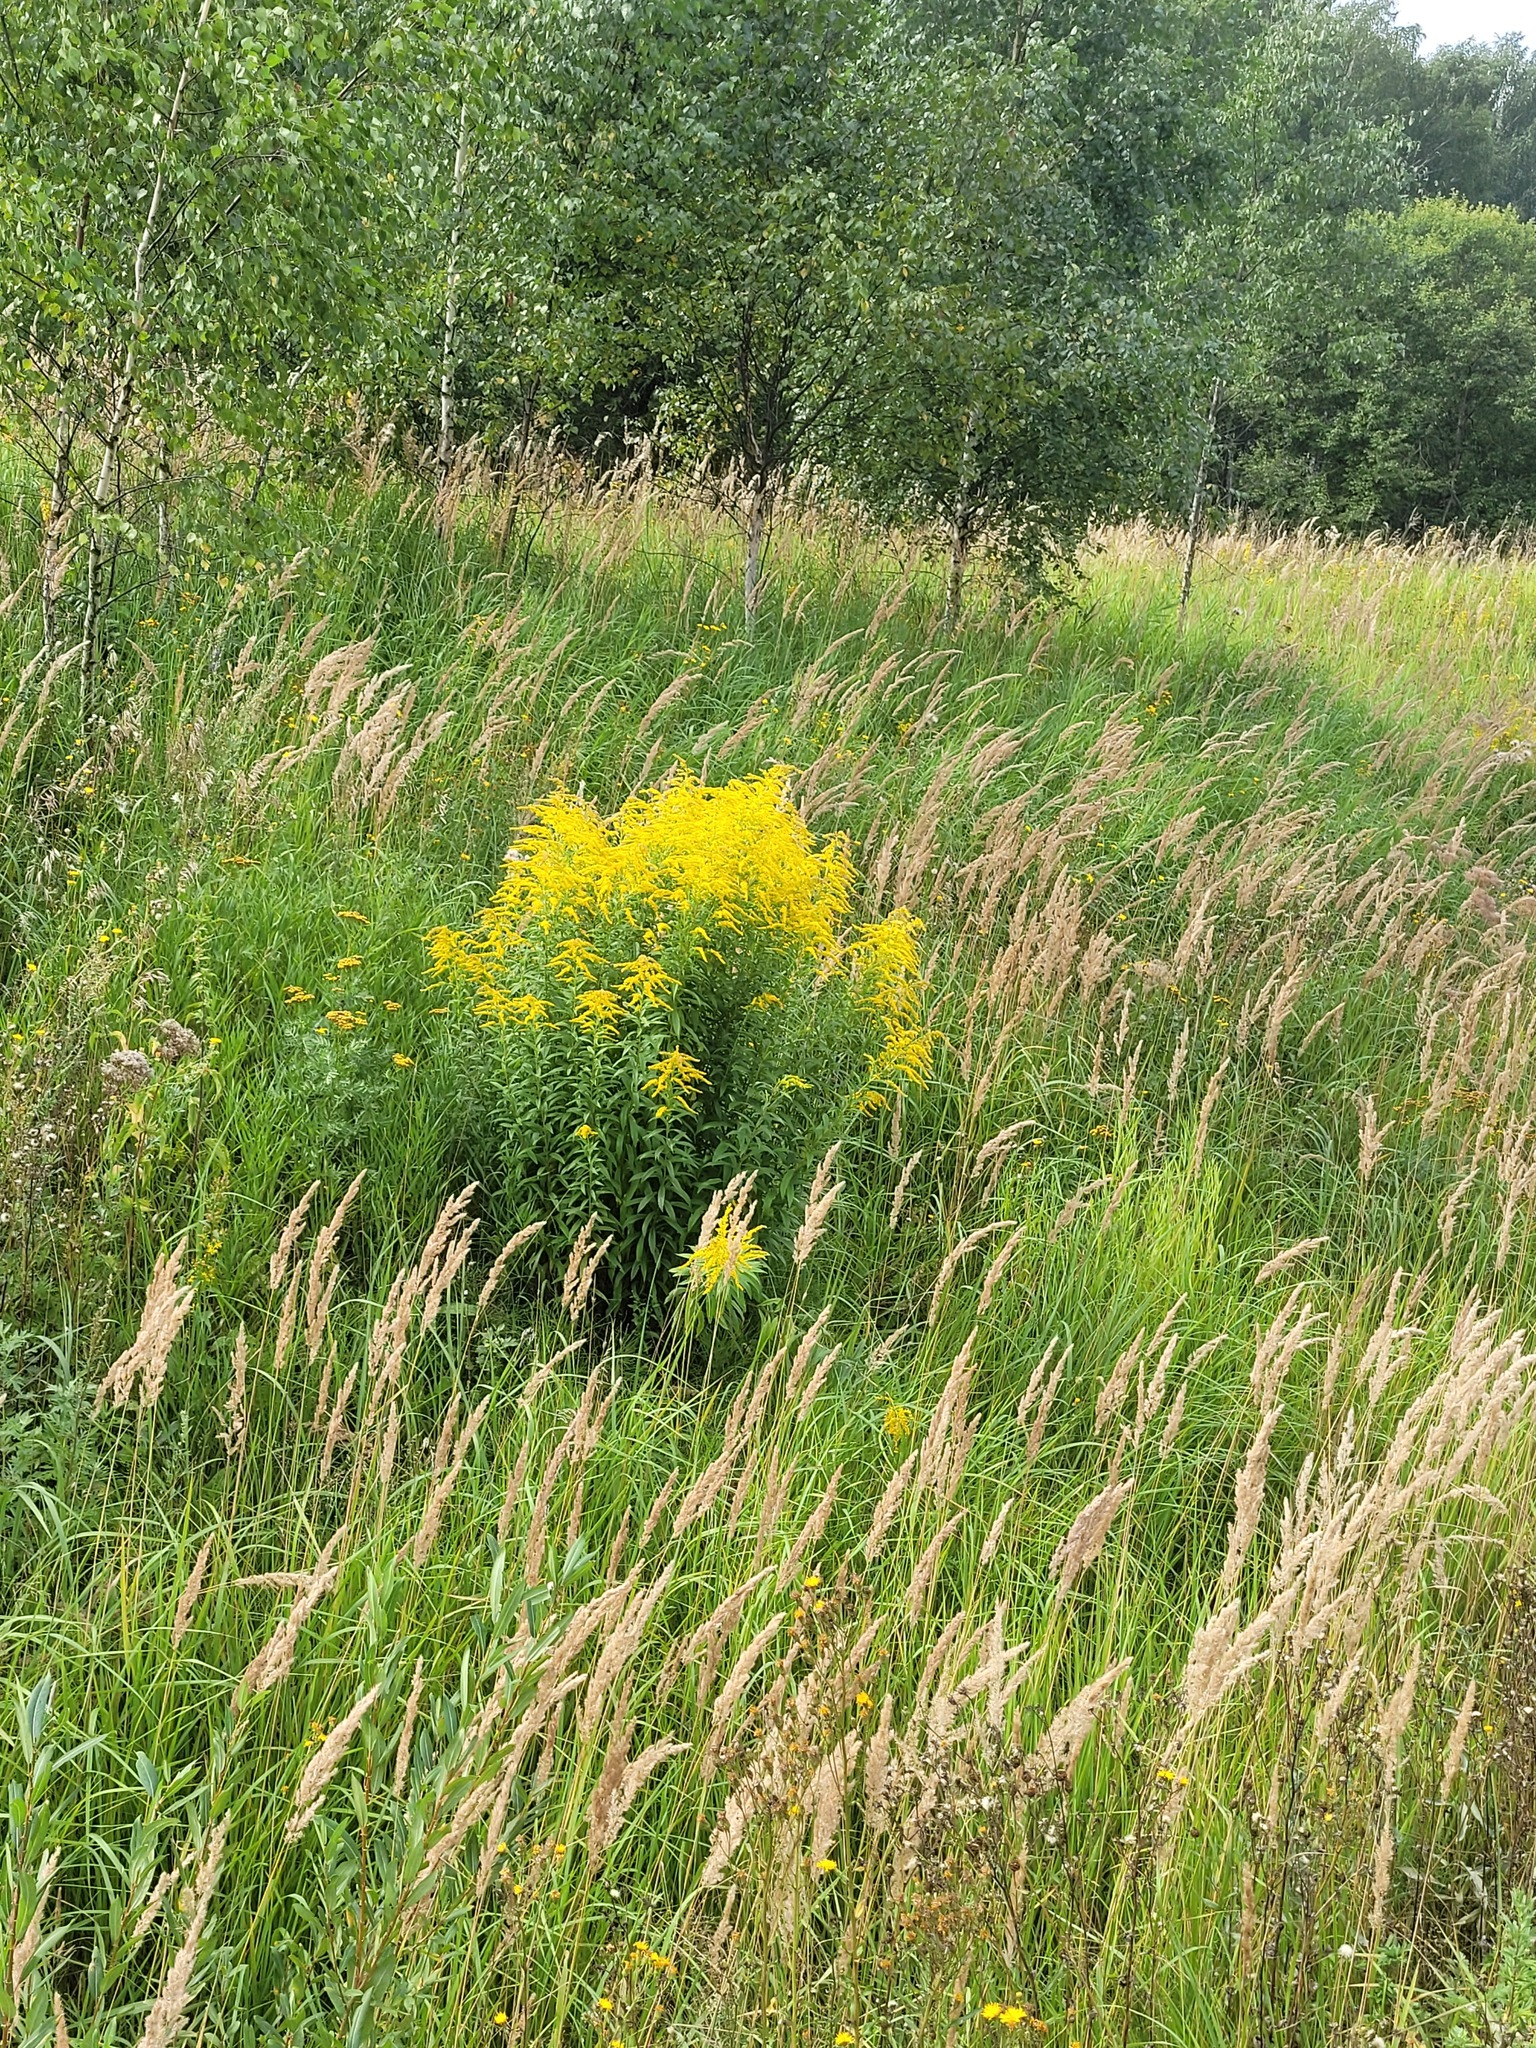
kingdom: Plantae
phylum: Tracheophyta
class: Magnoliopsida
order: Asterales
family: Asteraceae
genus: Solidago
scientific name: Solidago canadensis
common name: Canada goldenrod
